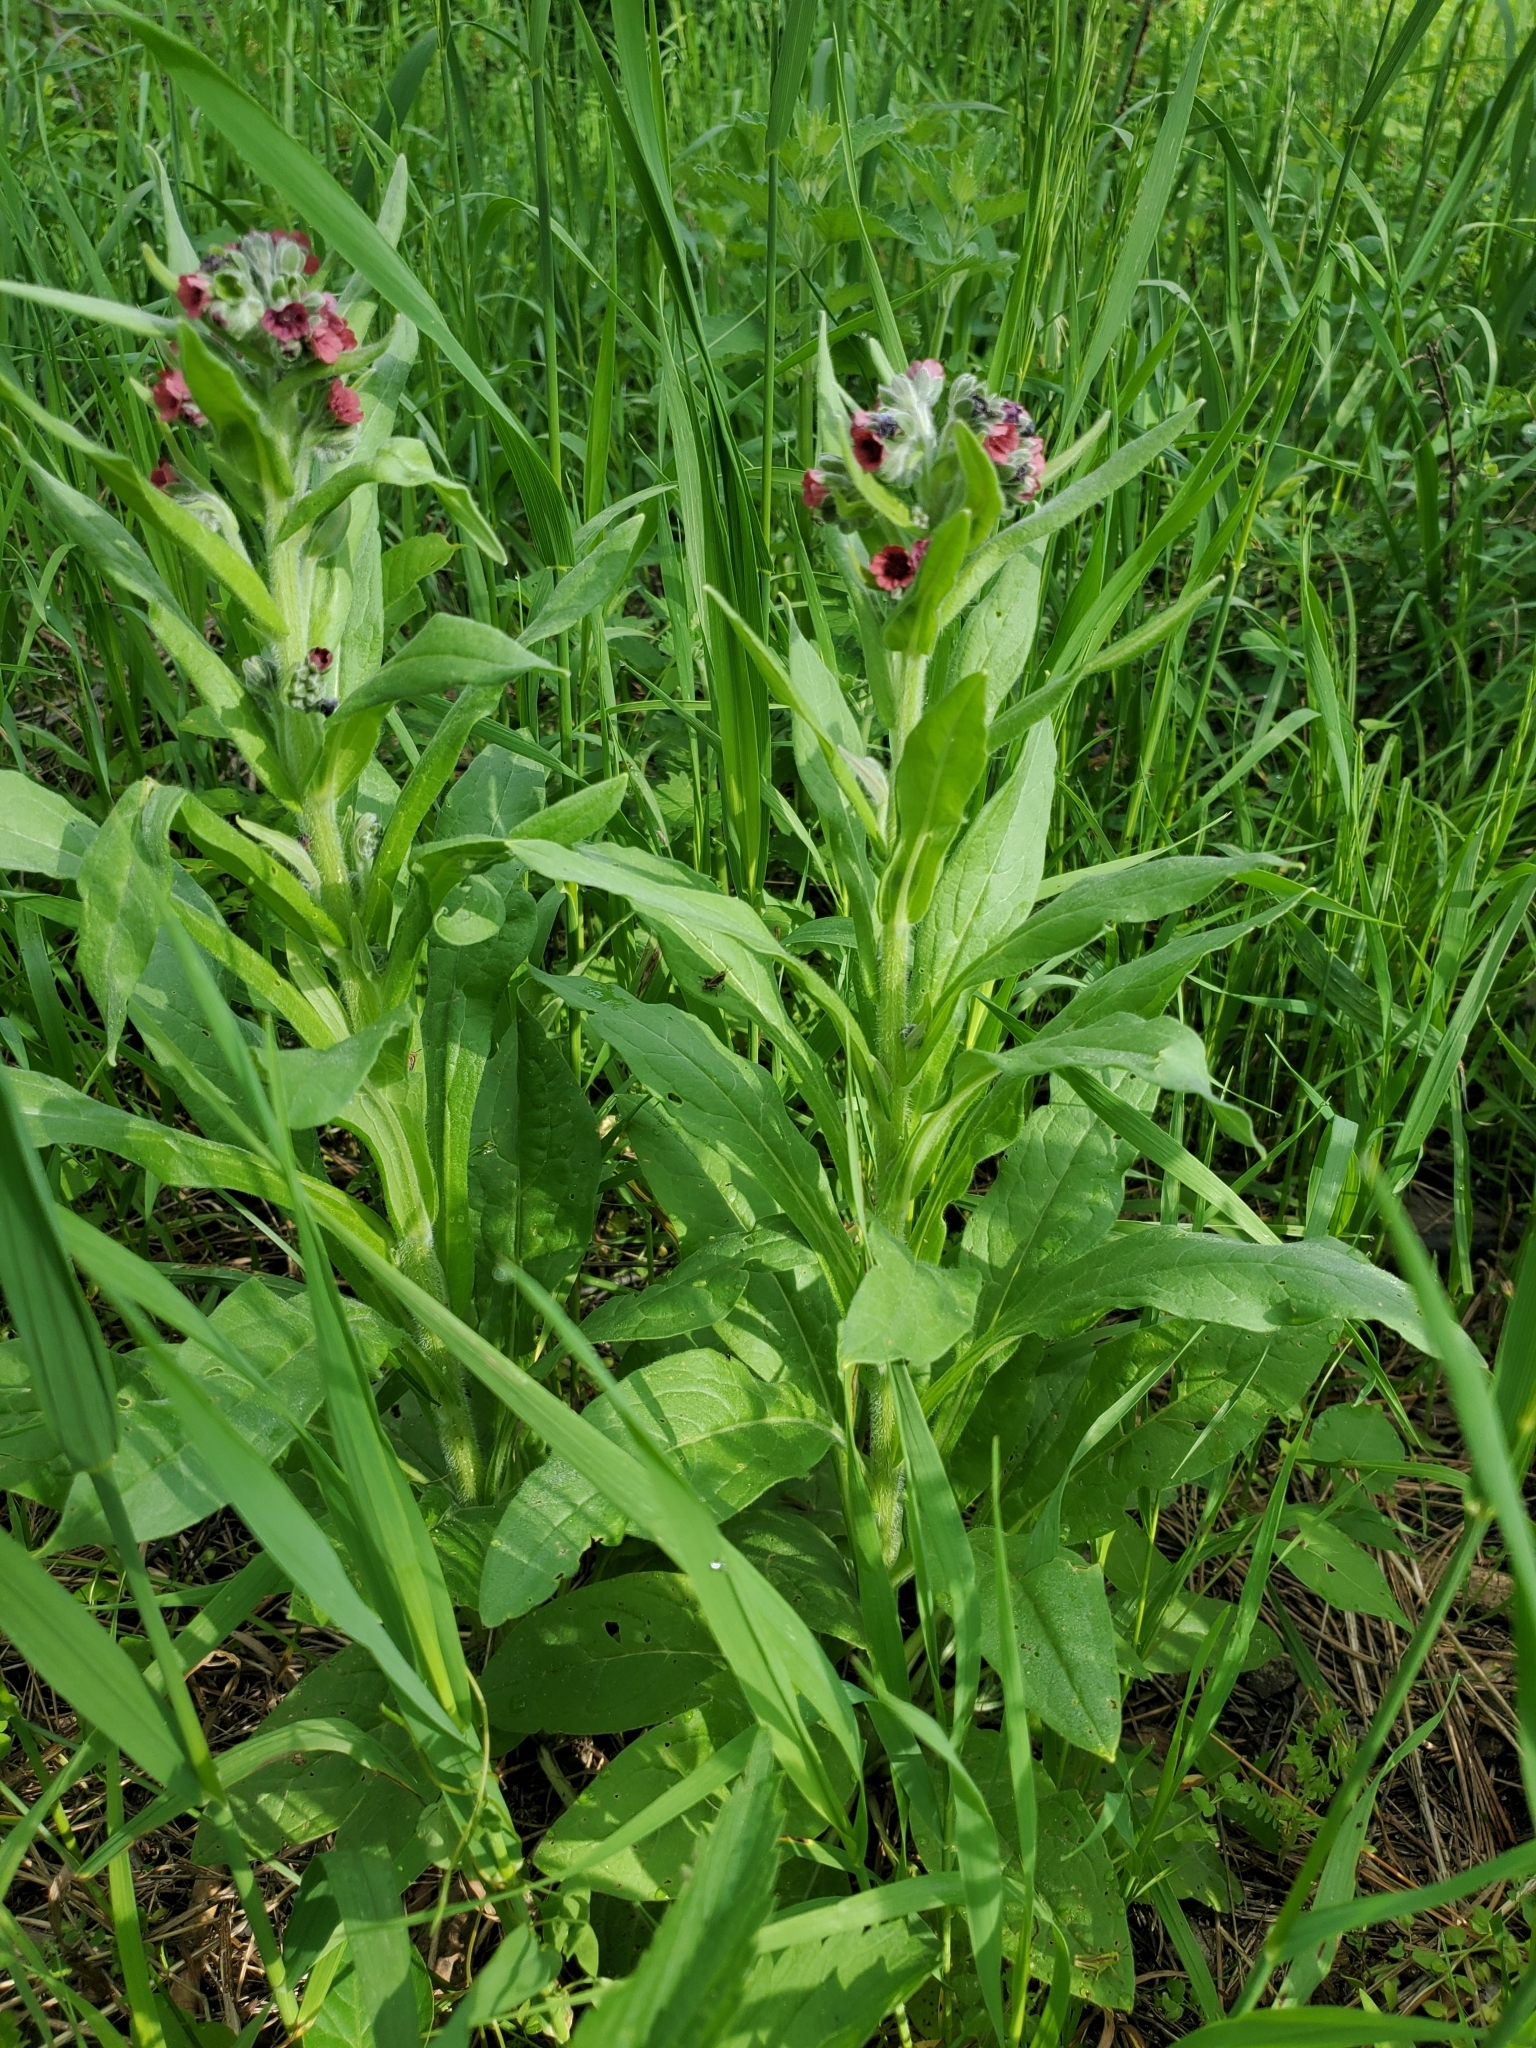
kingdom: Plantae
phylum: Tracheophyta
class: Magnoliopsida
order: Boraginales
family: Boraginaceae
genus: Cynoglossum
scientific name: Cynoglossum officinale
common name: Hound's-tongue
